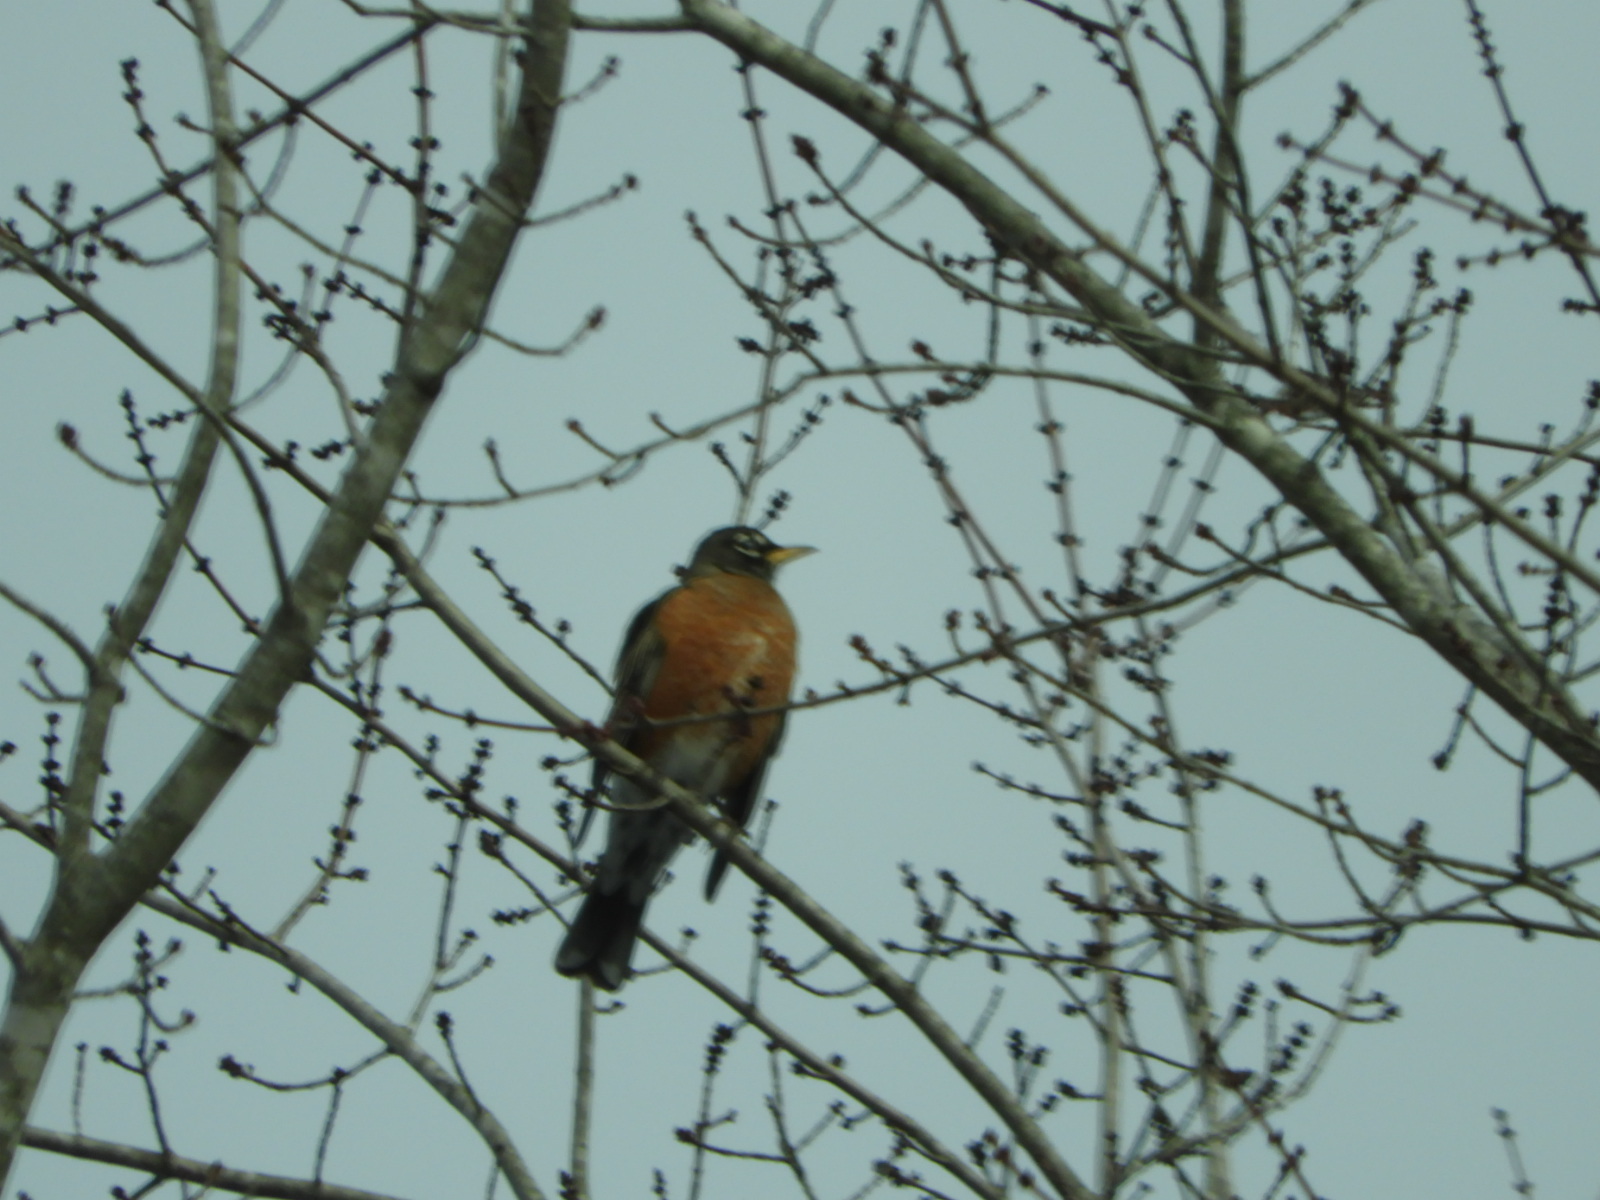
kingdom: Animalia
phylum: Chordata
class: Aves
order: Passeriformes
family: Turdidae
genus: Turdus
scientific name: Turdus migratorius
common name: American robin
